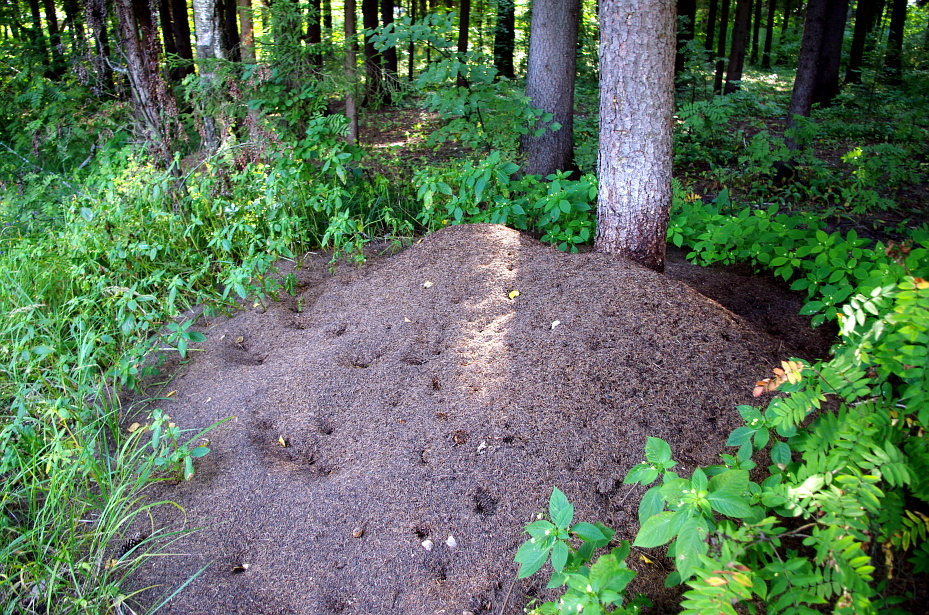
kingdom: Plantae
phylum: Tracheophyta
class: Magnoliopsida
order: Ericales
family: Balsaminaceae
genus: Impatiens
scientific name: Impatiens parviflora
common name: Small balsam
